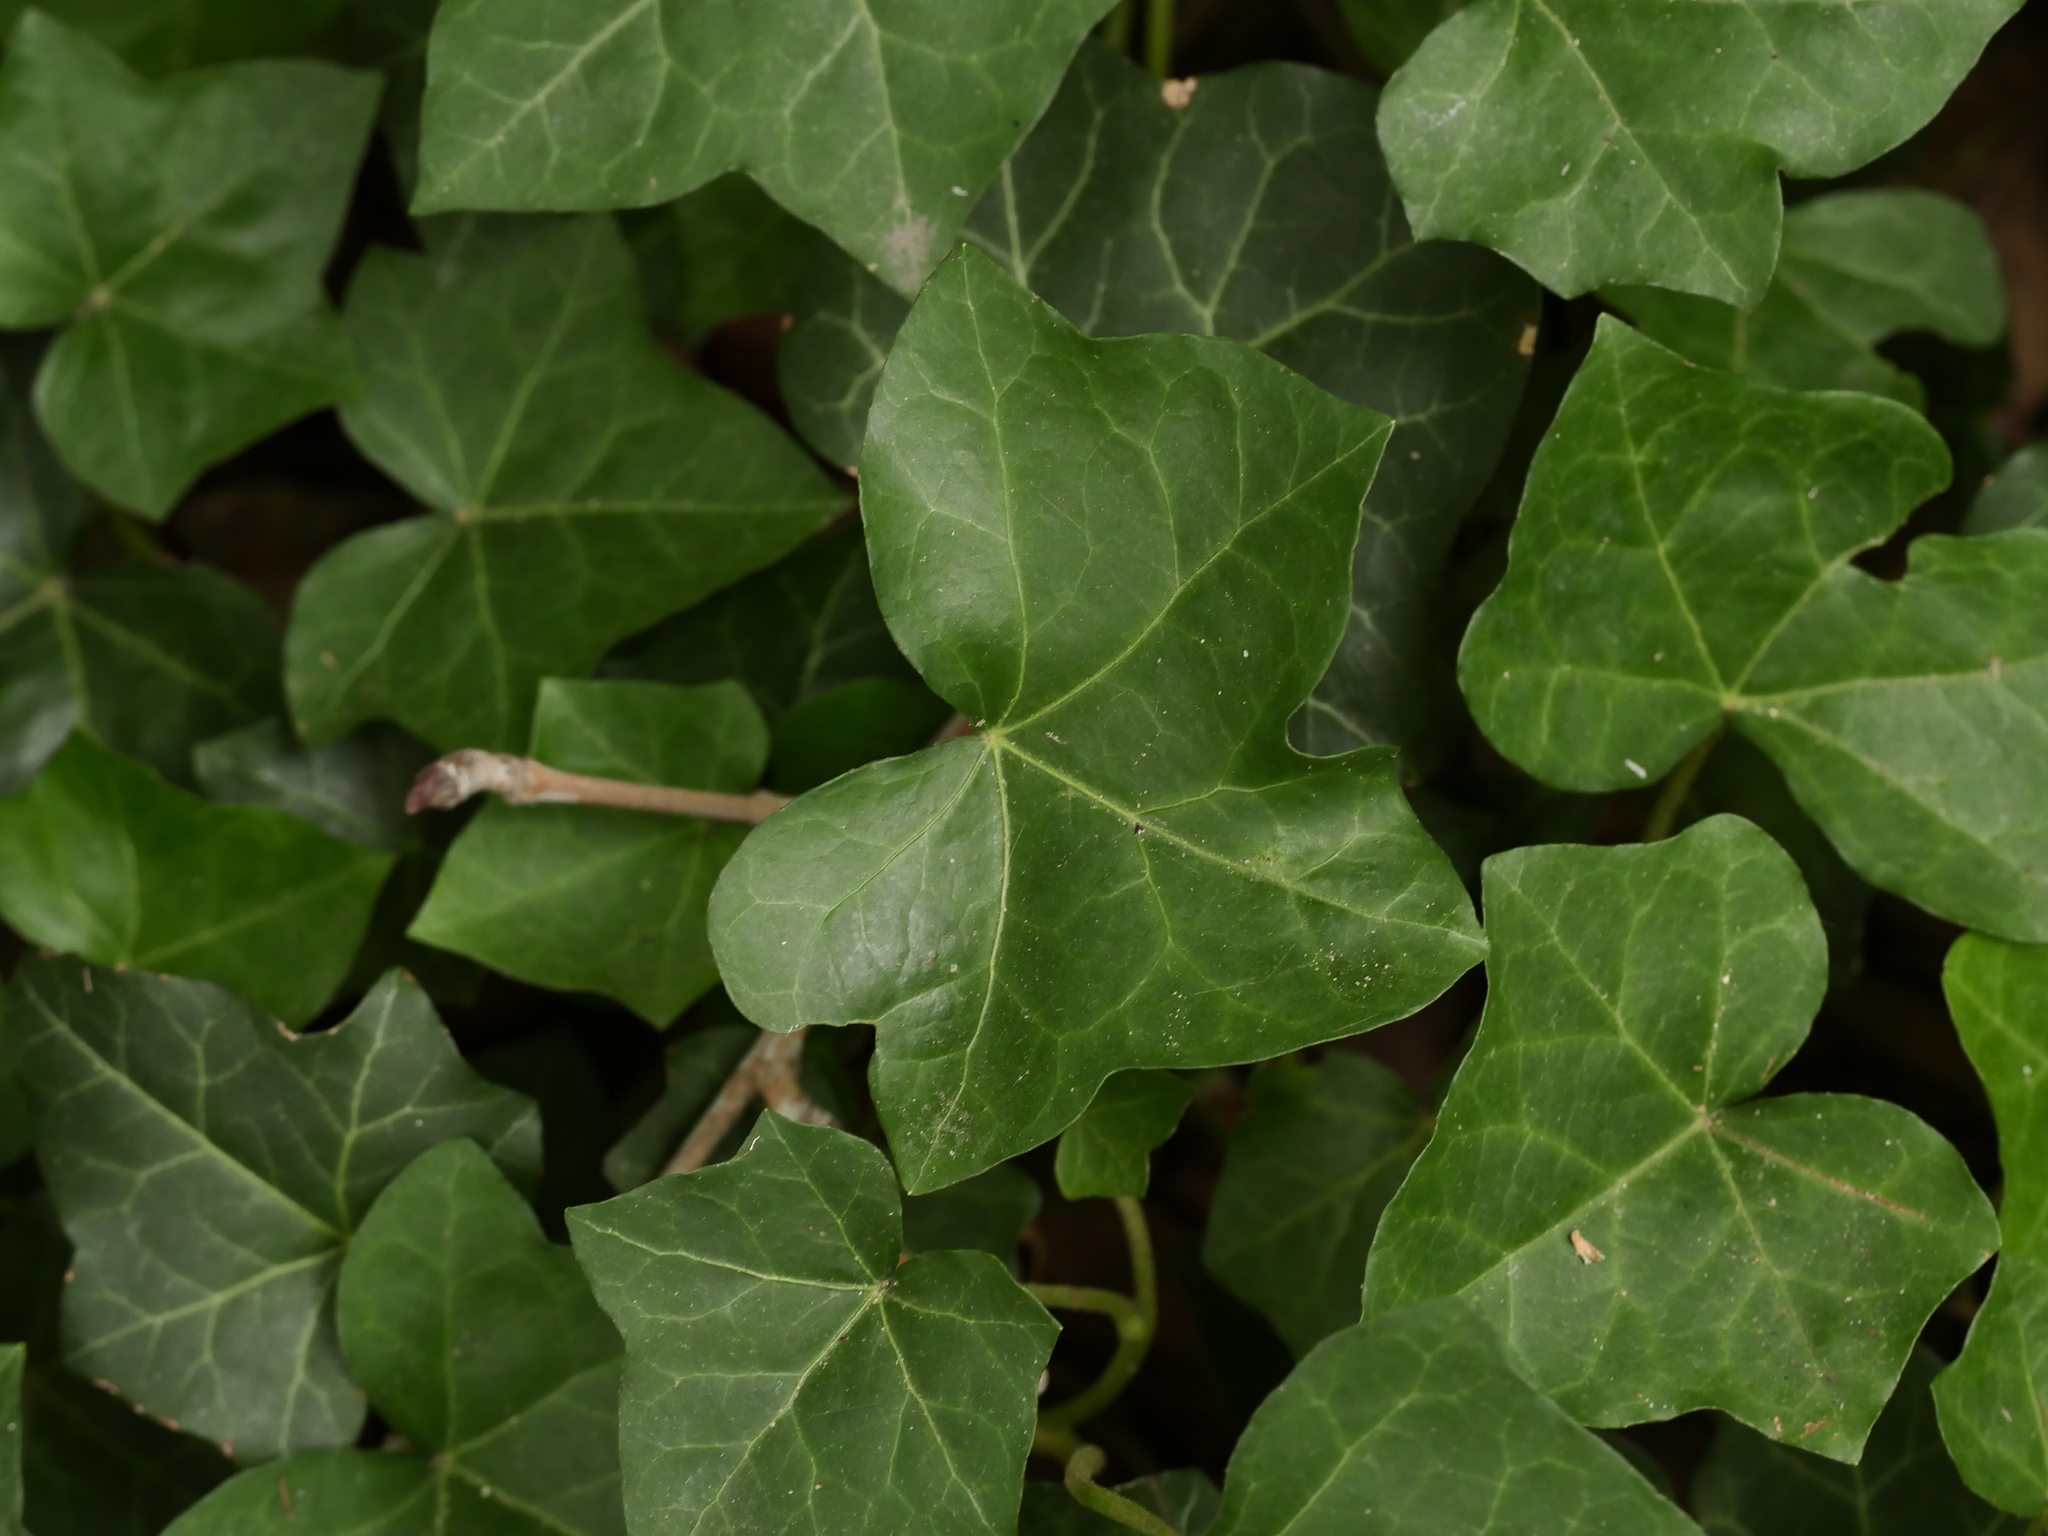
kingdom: Plantae
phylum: Tracheophyta
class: Magnoliopsida
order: Apiales
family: Araliaceae
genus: Hedera
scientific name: Hedera helix
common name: Ivy
